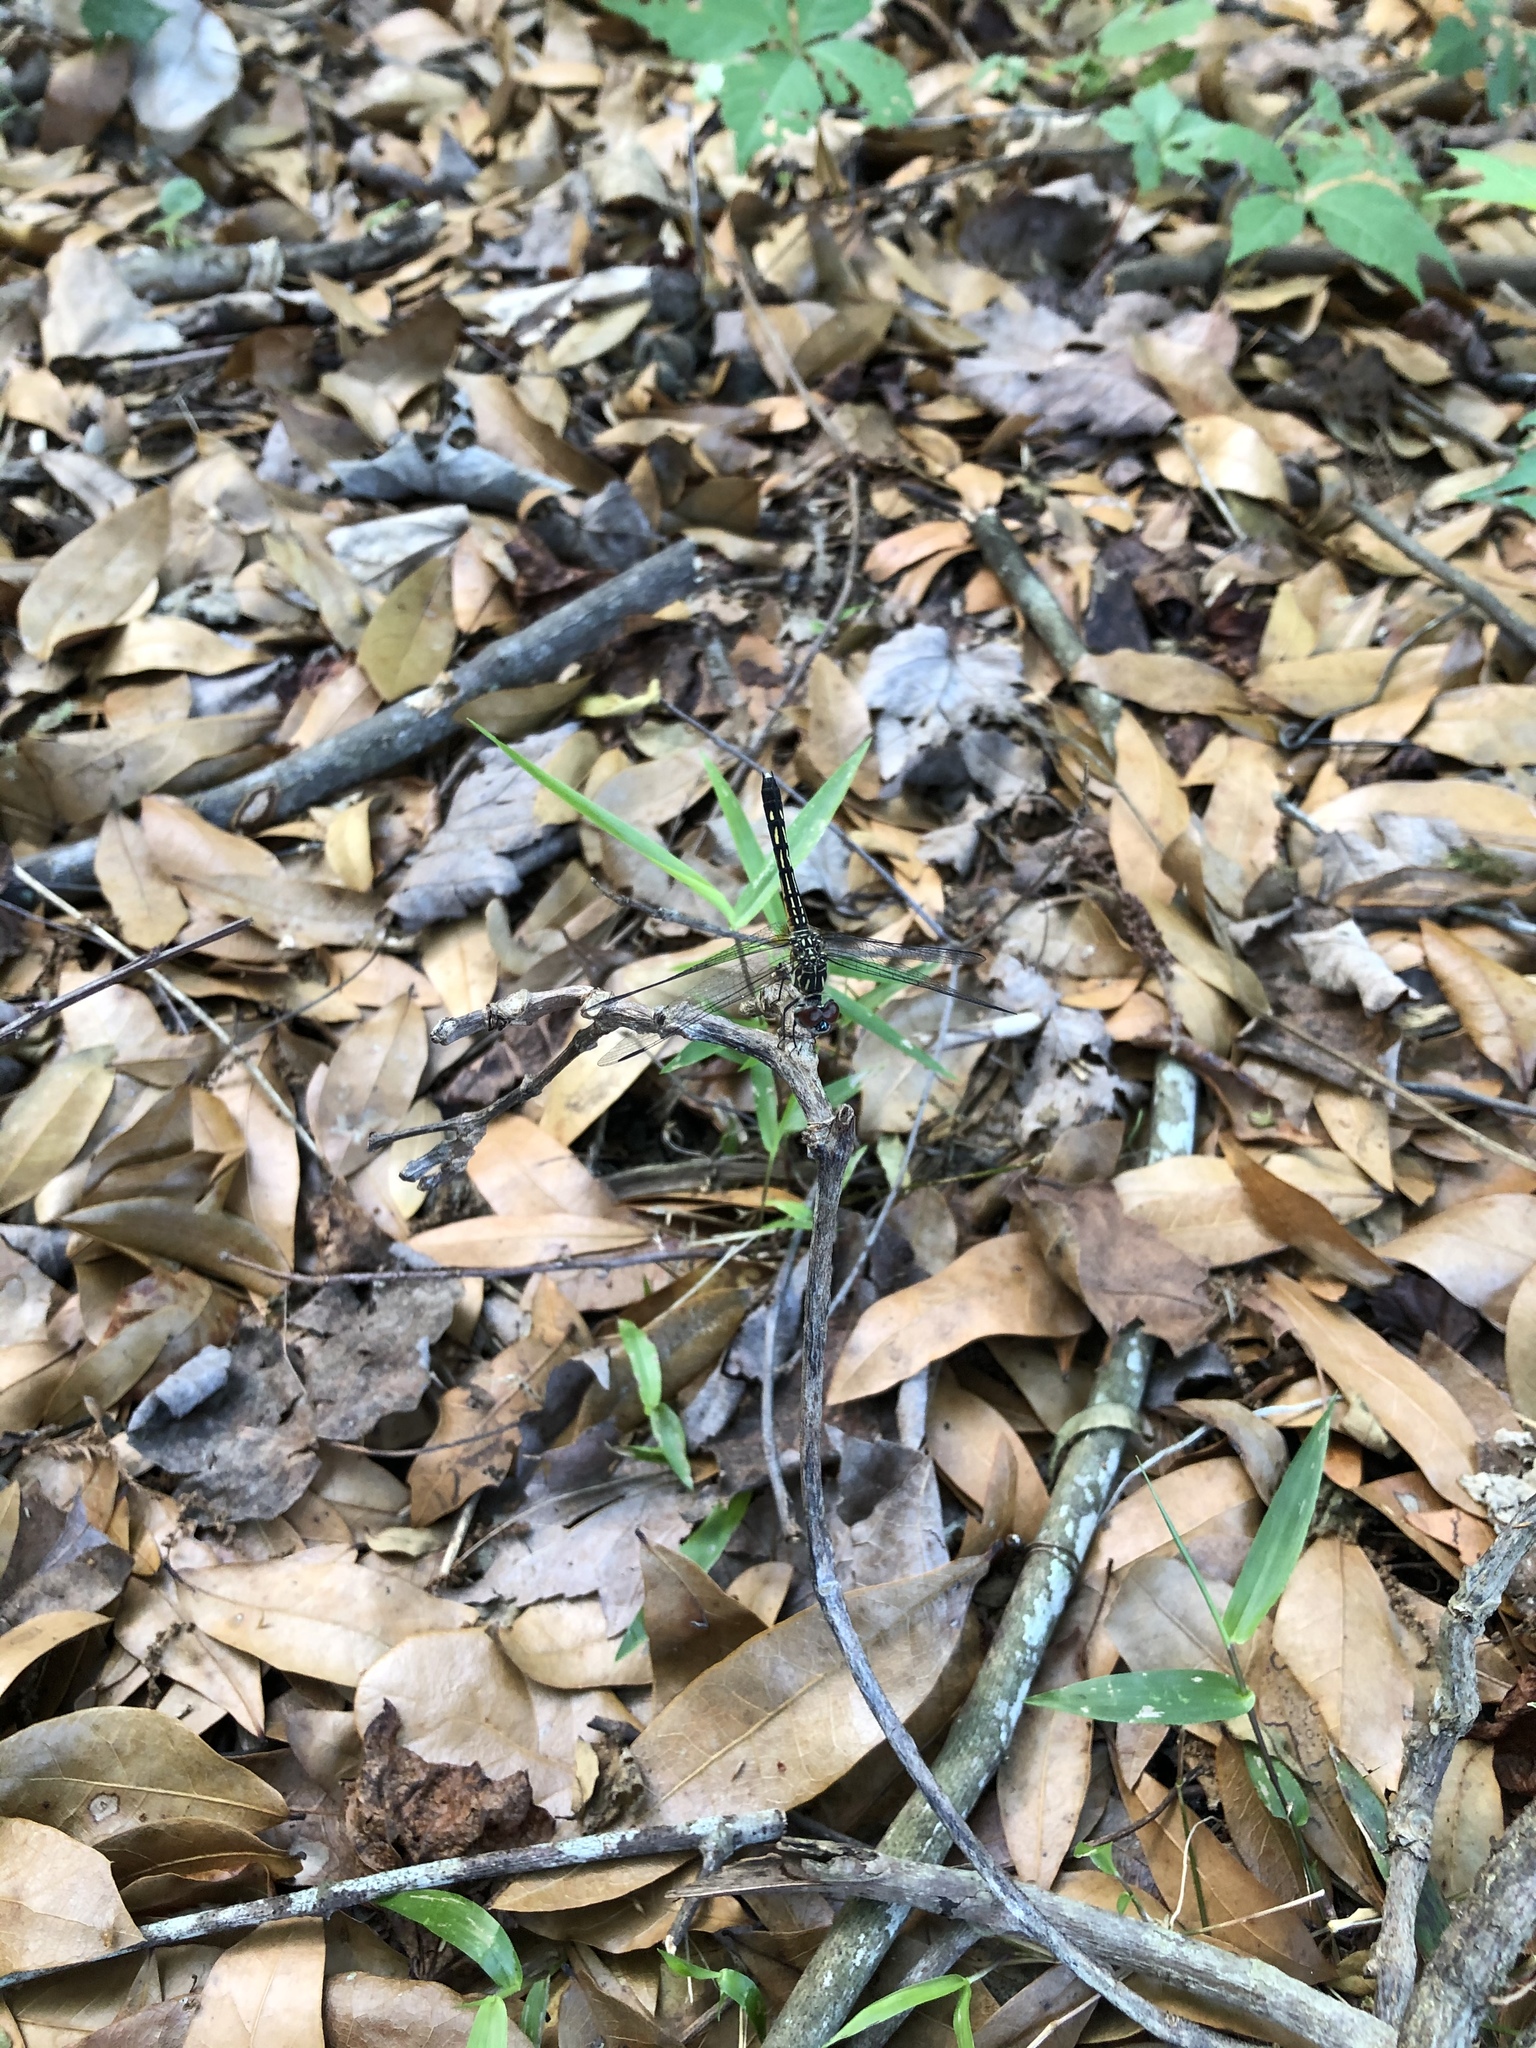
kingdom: Animalia
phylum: Arthropoda
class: Insecta
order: Odonata
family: Libellulidae
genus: Pachydiplax
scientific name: Pachydiplax longipennis
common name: Blue dasher
